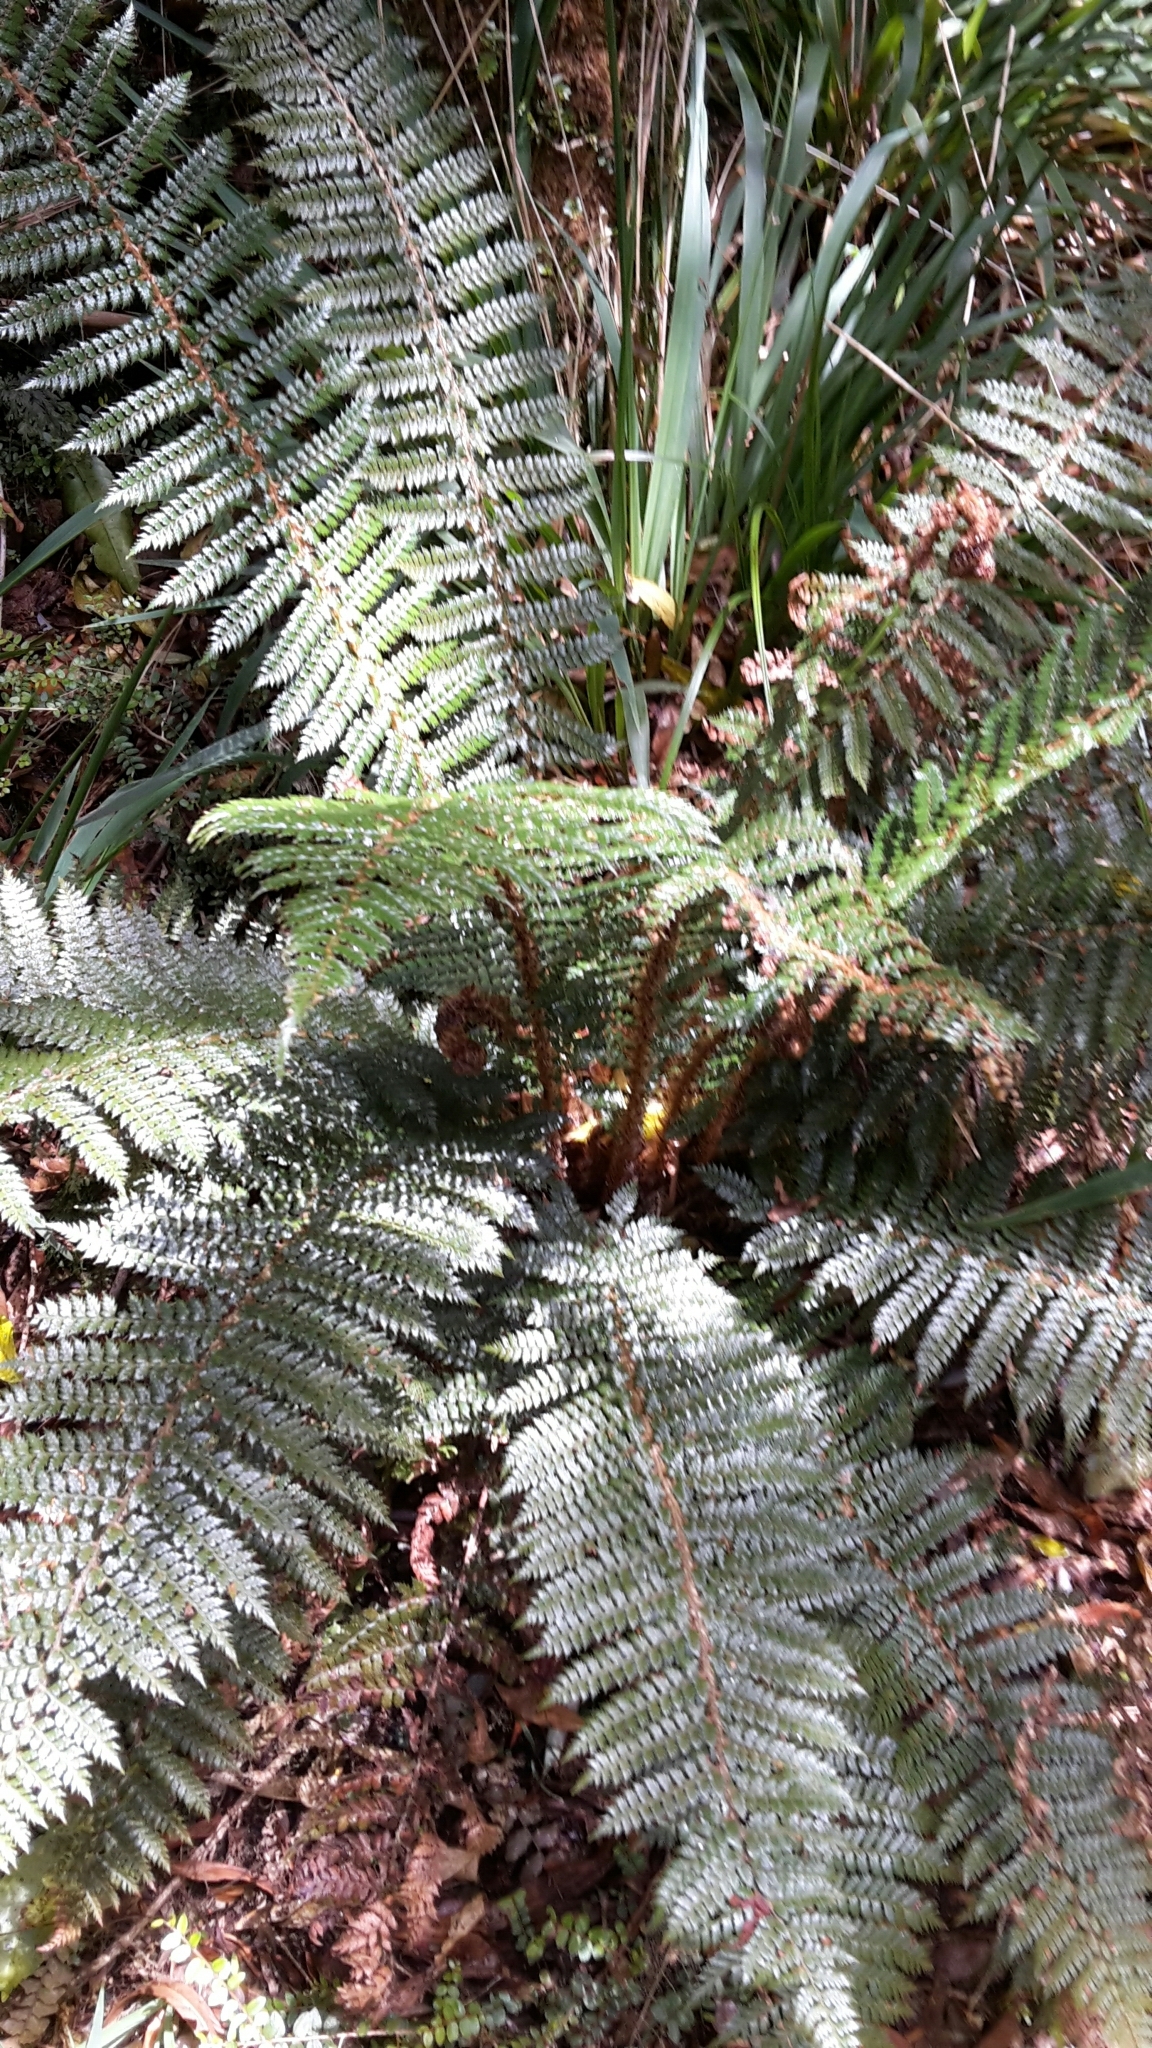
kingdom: Plantae
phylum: Tracheophyta
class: Polypodiopsida
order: Polypodiales
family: Dryopteridaceae
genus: Polystichum
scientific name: Polystichum vestitum
